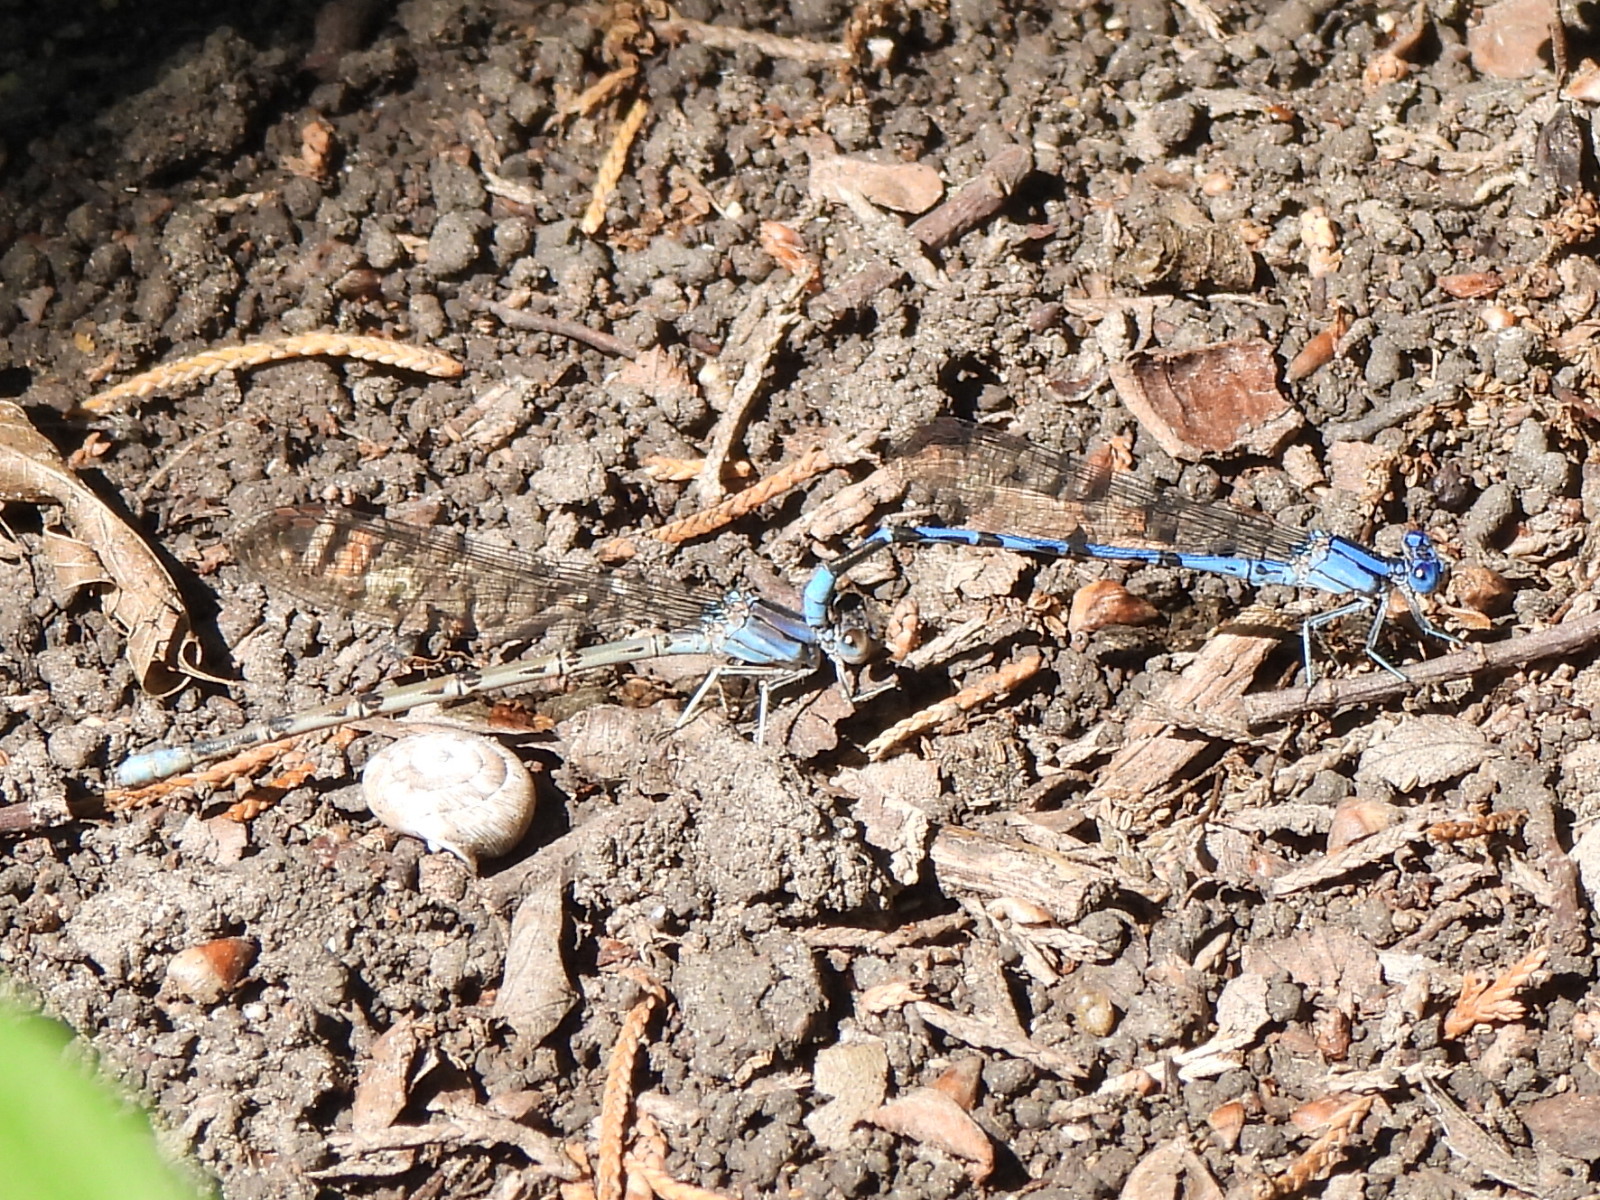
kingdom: Animalia
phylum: Arthropoda
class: Insecta
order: Odonata
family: Coenagrionidae
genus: Argia
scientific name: Argia funebris
